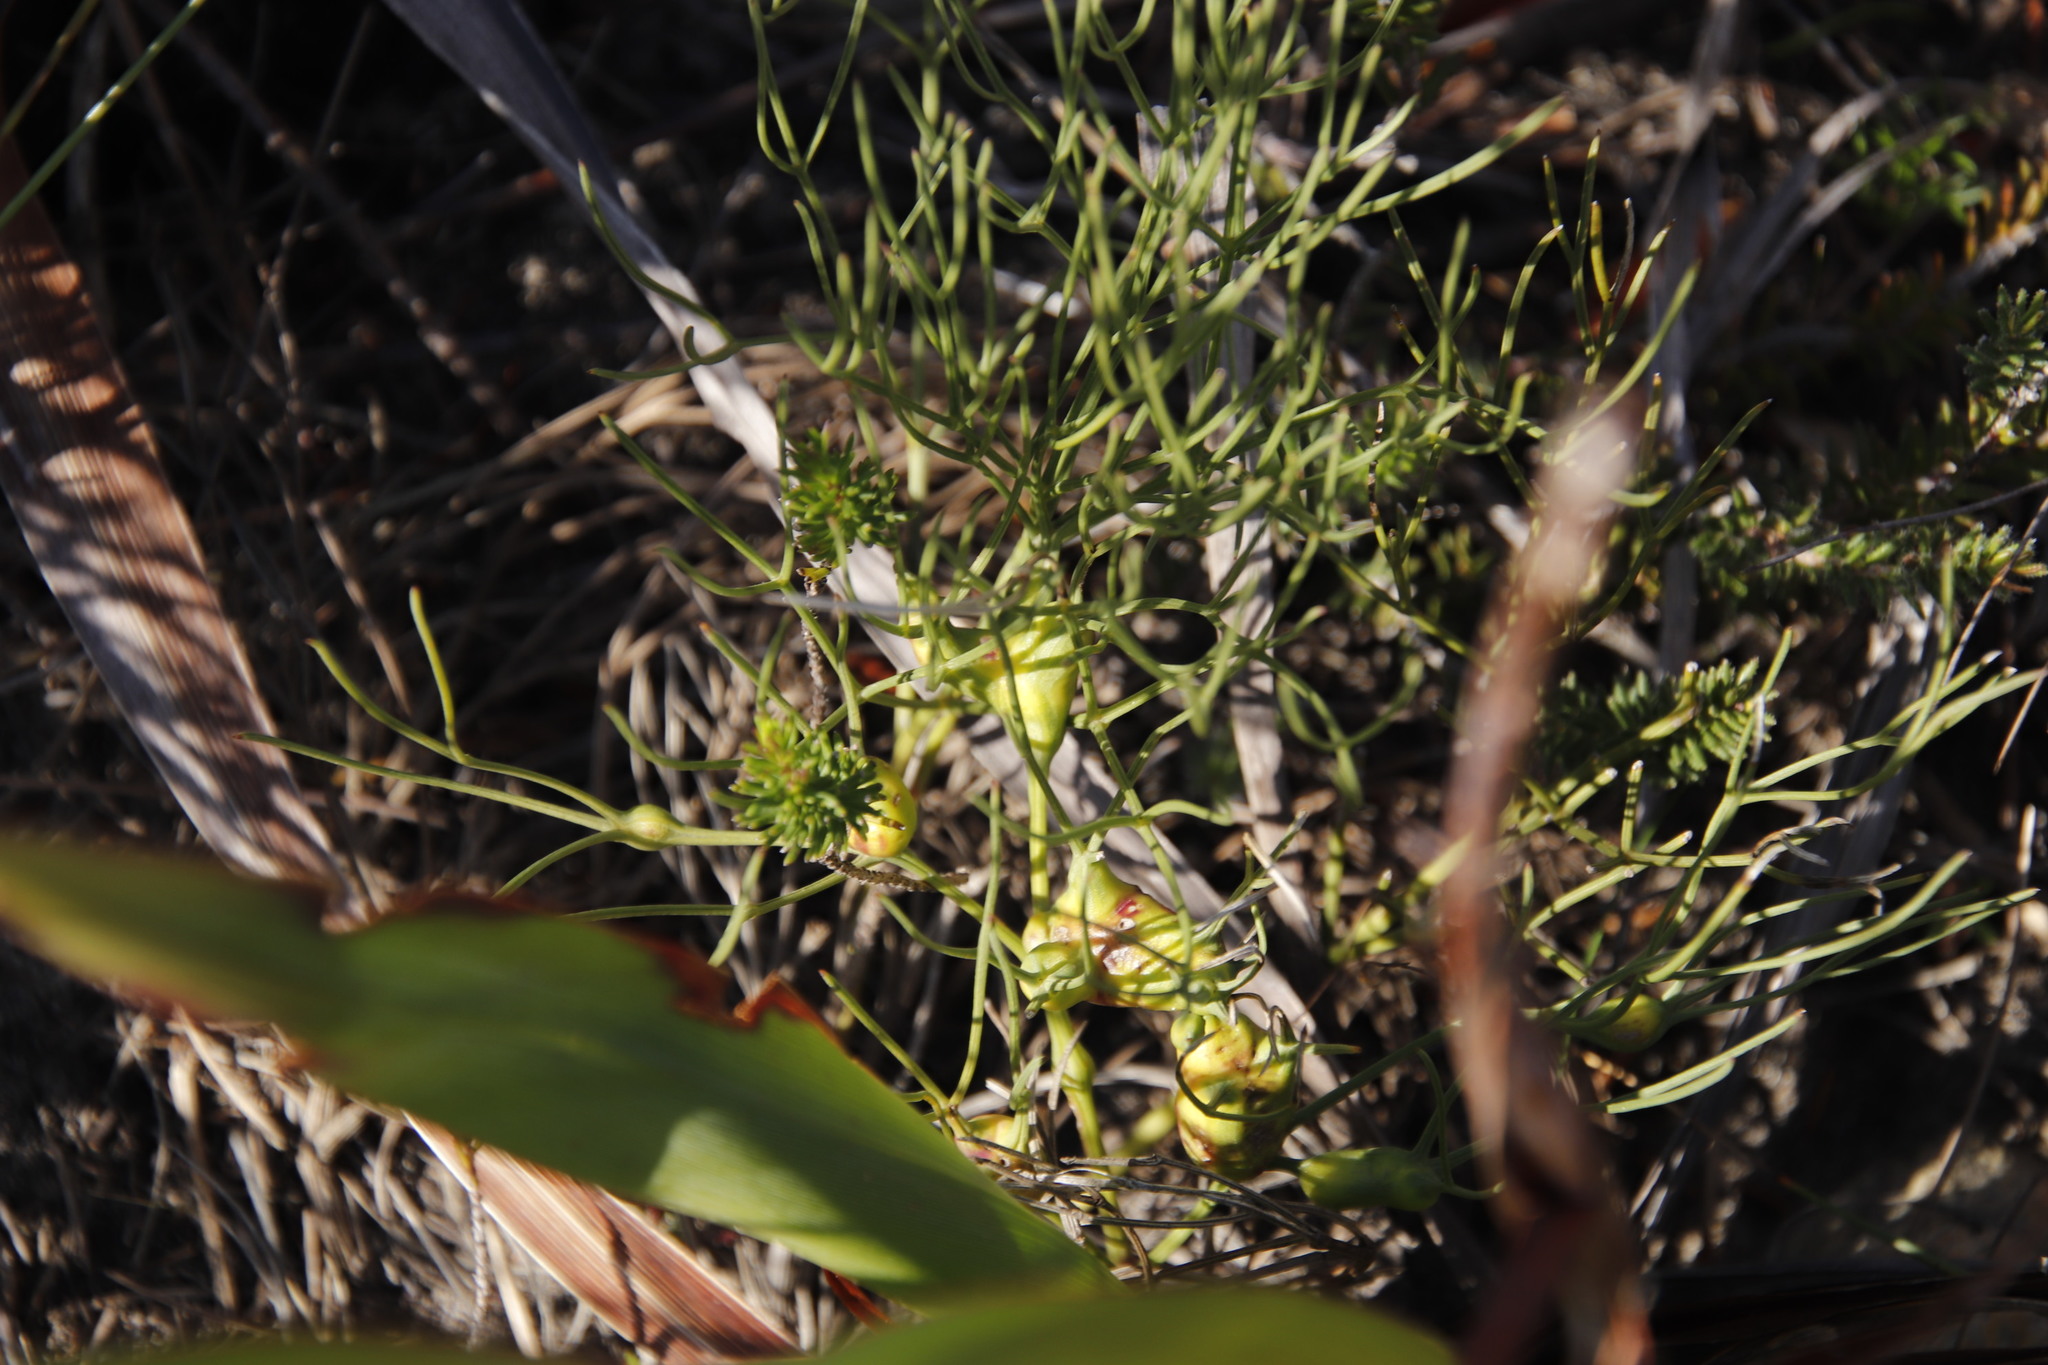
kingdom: Plantae
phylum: Tracheophyta
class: Magnoliopsida
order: Apiales
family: Apiaceae
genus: Nanobubon
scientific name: Nanobubon strictum
